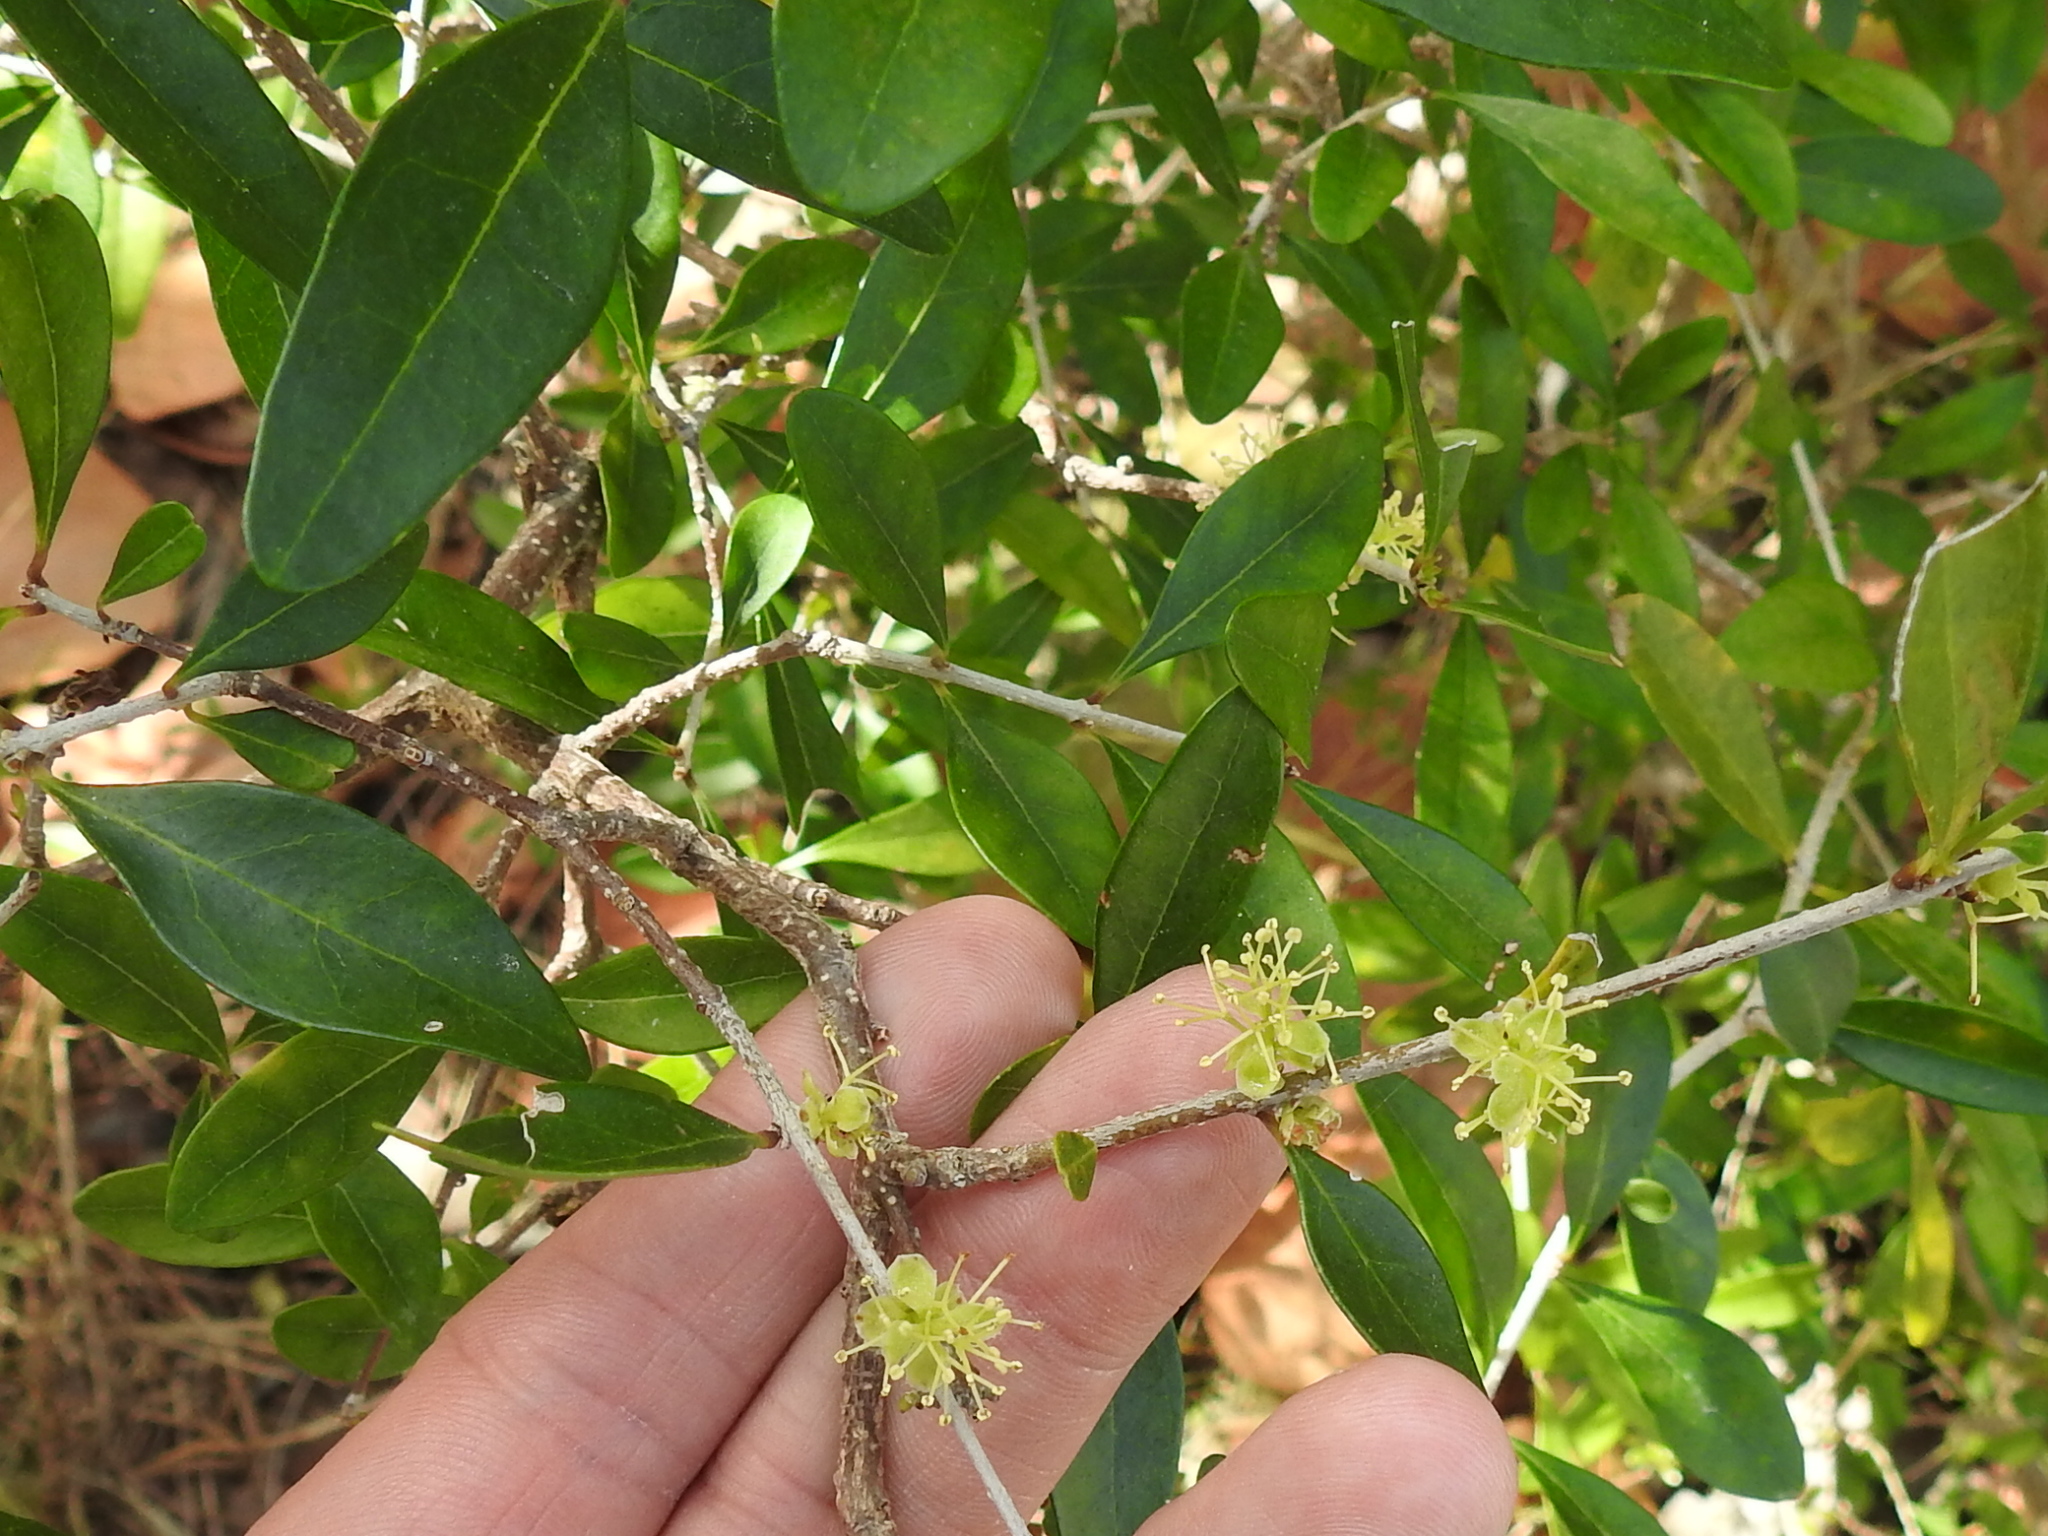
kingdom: Plantae
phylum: Tracheophyta
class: Magnoliopsida
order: Lamiales
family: Oleaceae
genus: Forestiera
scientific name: Forestiera segregata
